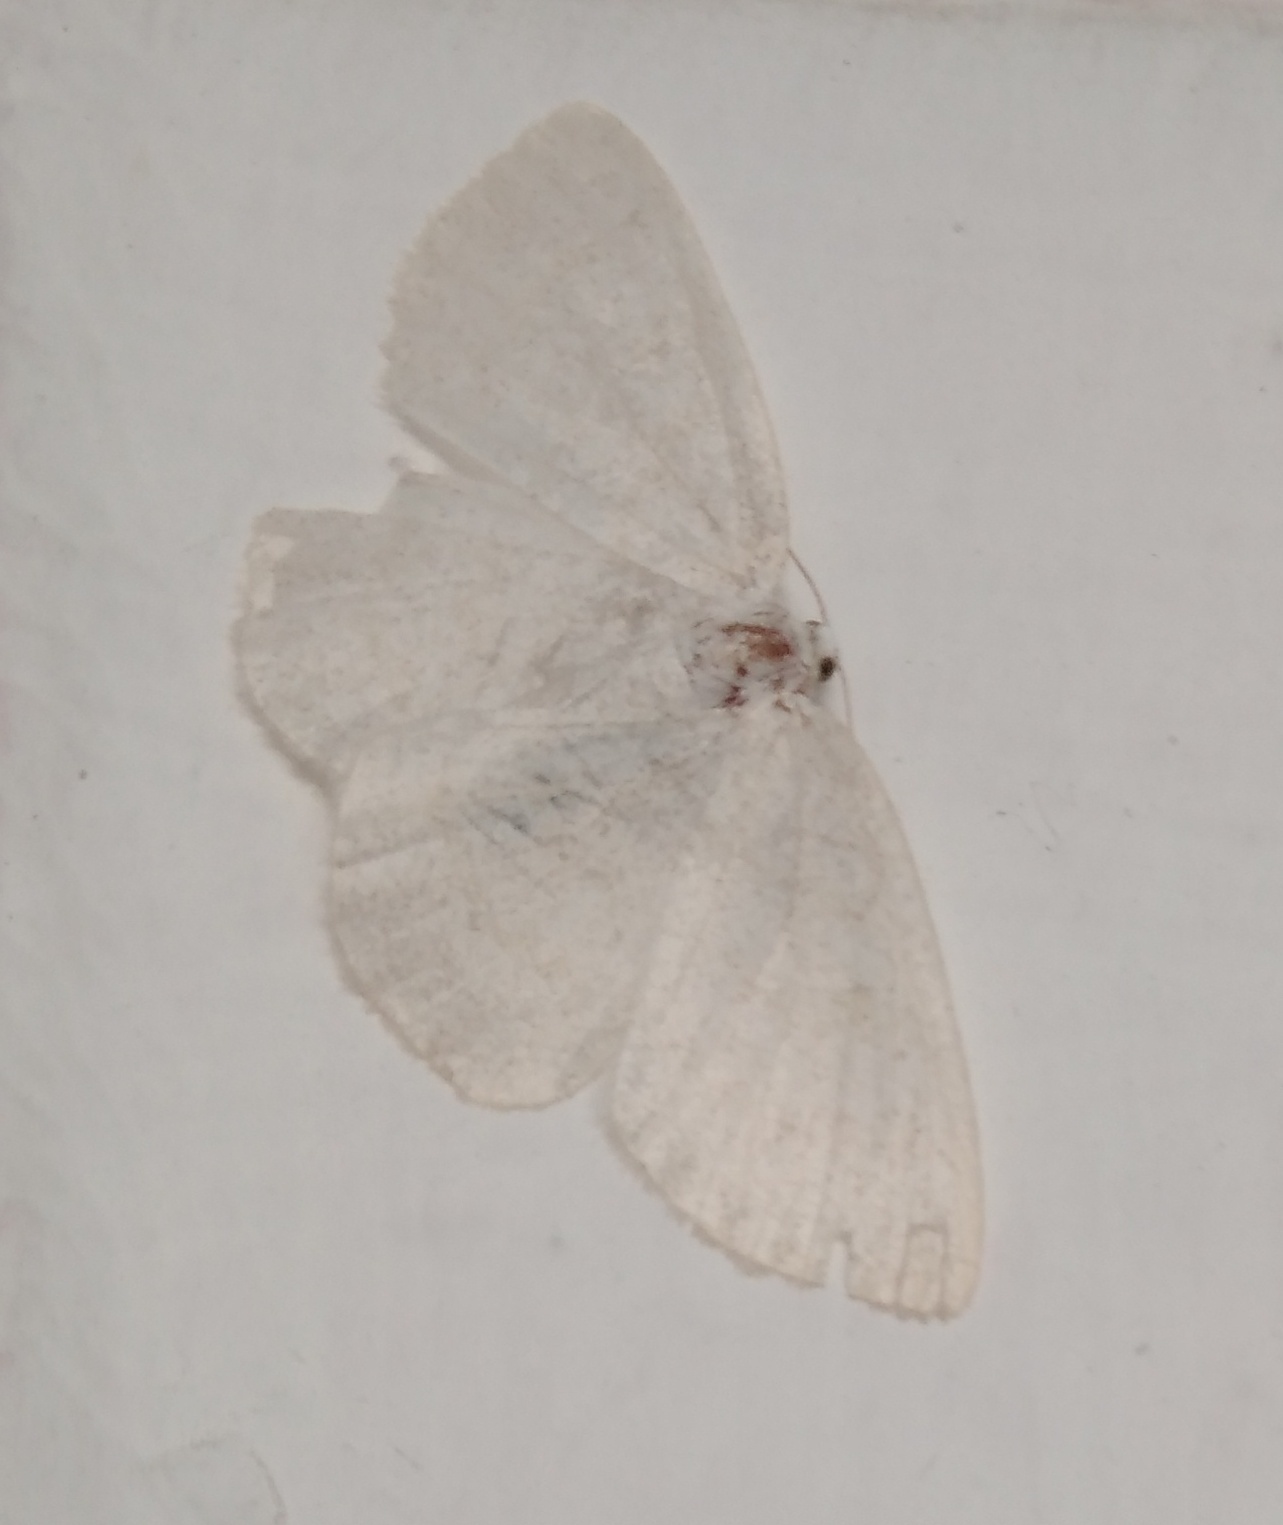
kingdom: Animalia
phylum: Arthropoda
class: Insecta
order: Lepidoptera
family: Geometridae
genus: Cabera
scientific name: Cabera pusaria
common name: Common white wave
